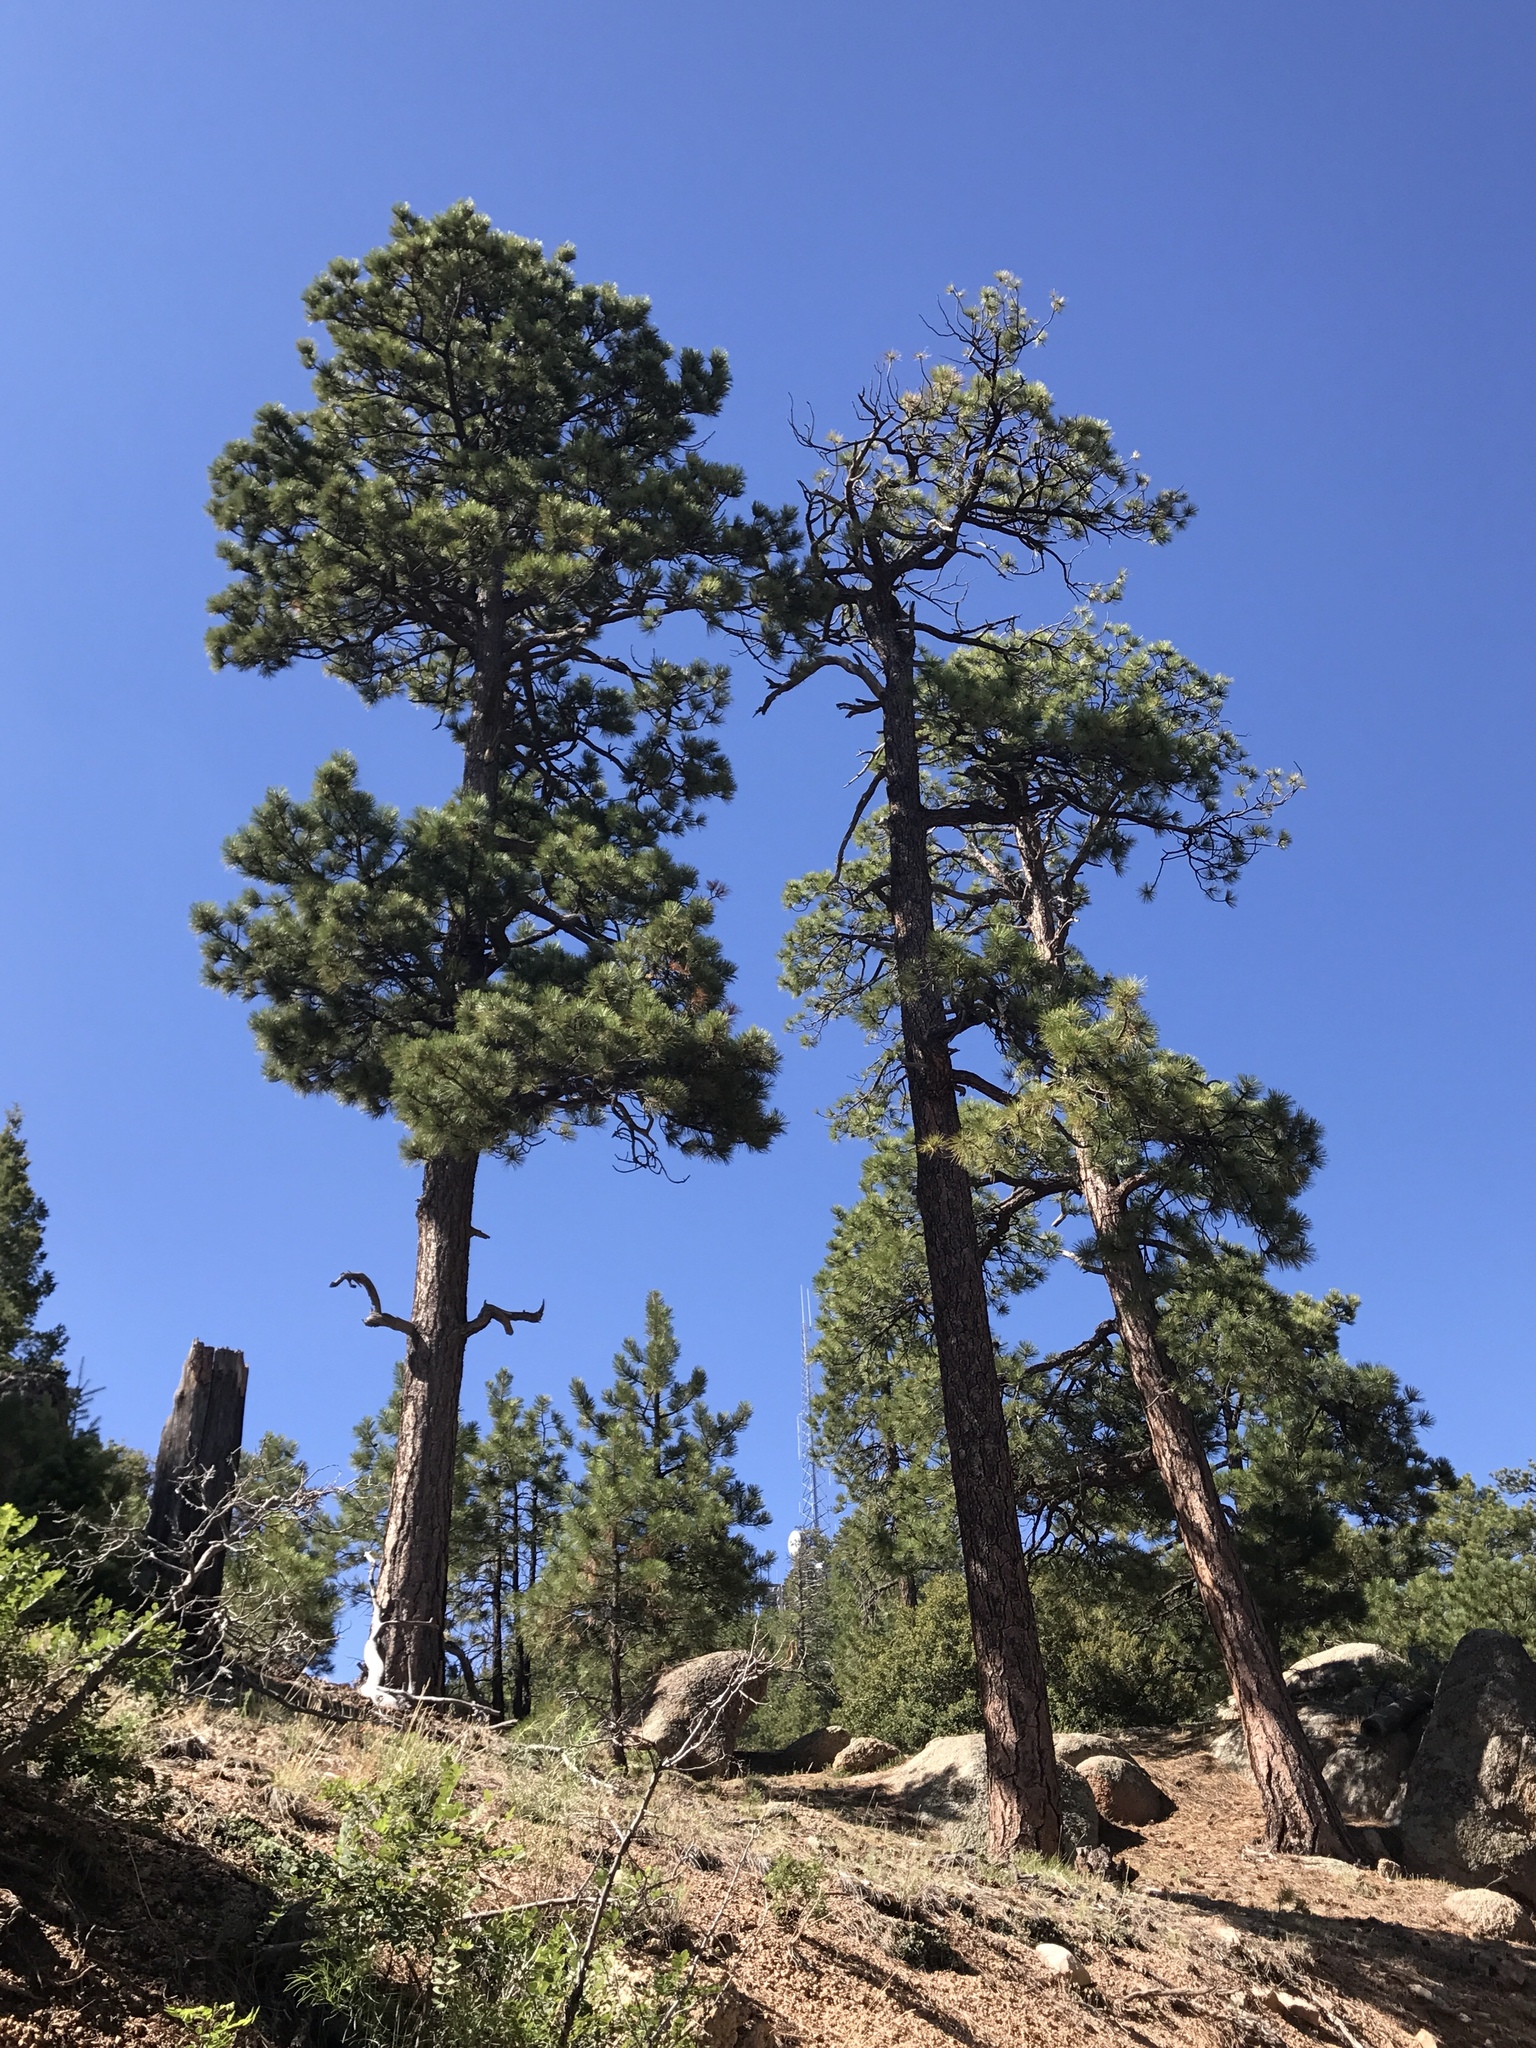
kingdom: Plantae
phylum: Tracheophyta
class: Pinopsida
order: Pinales
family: Pinaceae
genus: Pinus
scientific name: Pinus ponderosa
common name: Western yellow-pine
